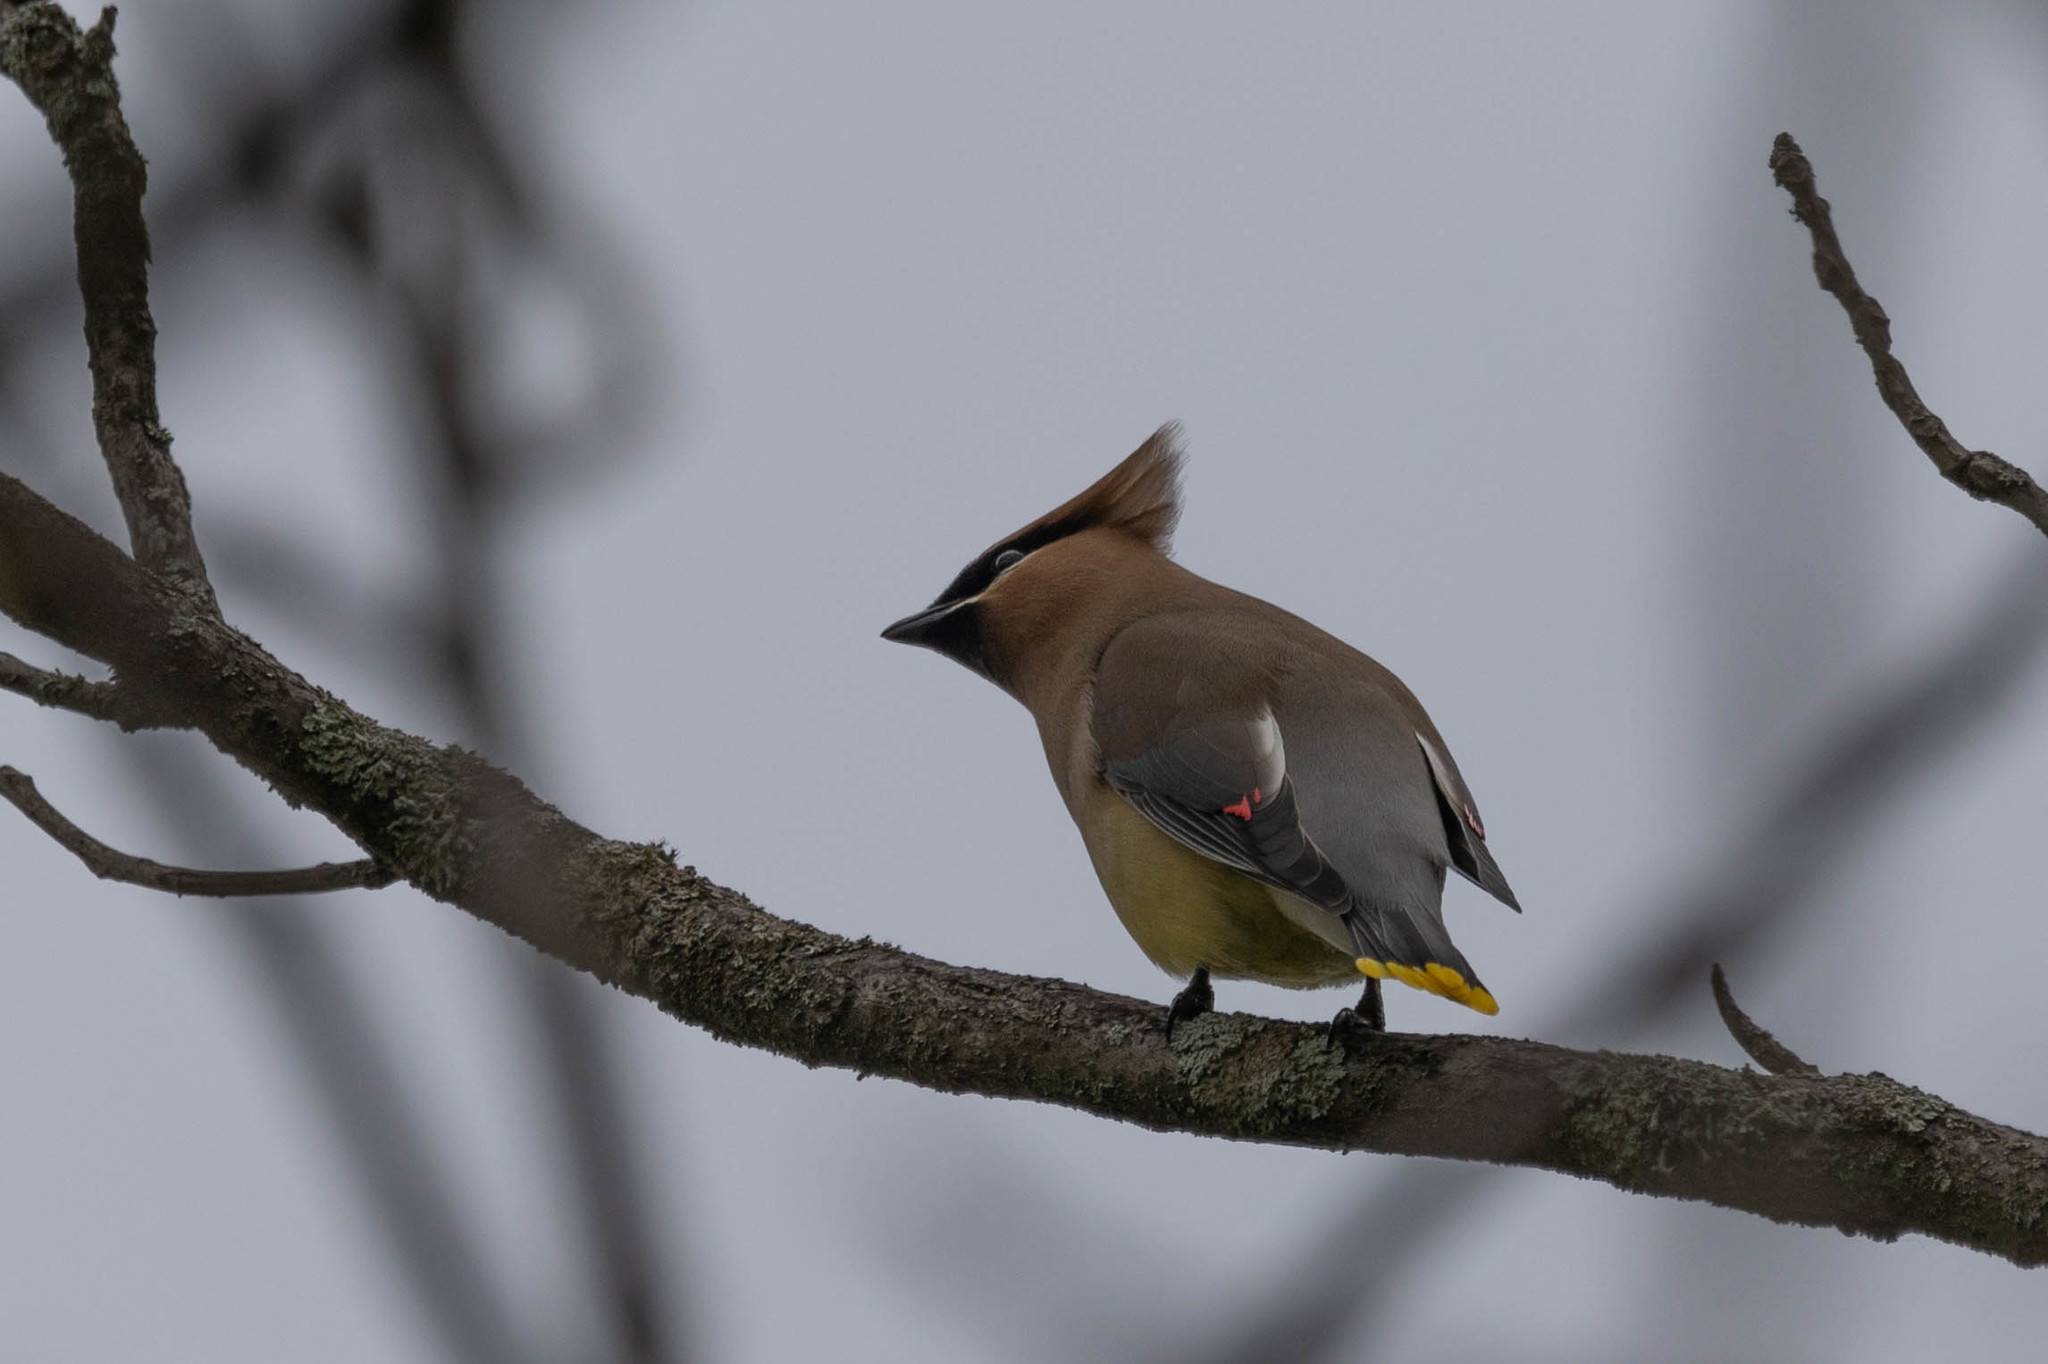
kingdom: Animalia
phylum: Chordata
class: Aves
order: Passeriformes
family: Bombycillidae
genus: Bombycilla
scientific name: Bombycilla cedrorum
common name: Cedar waxwing
